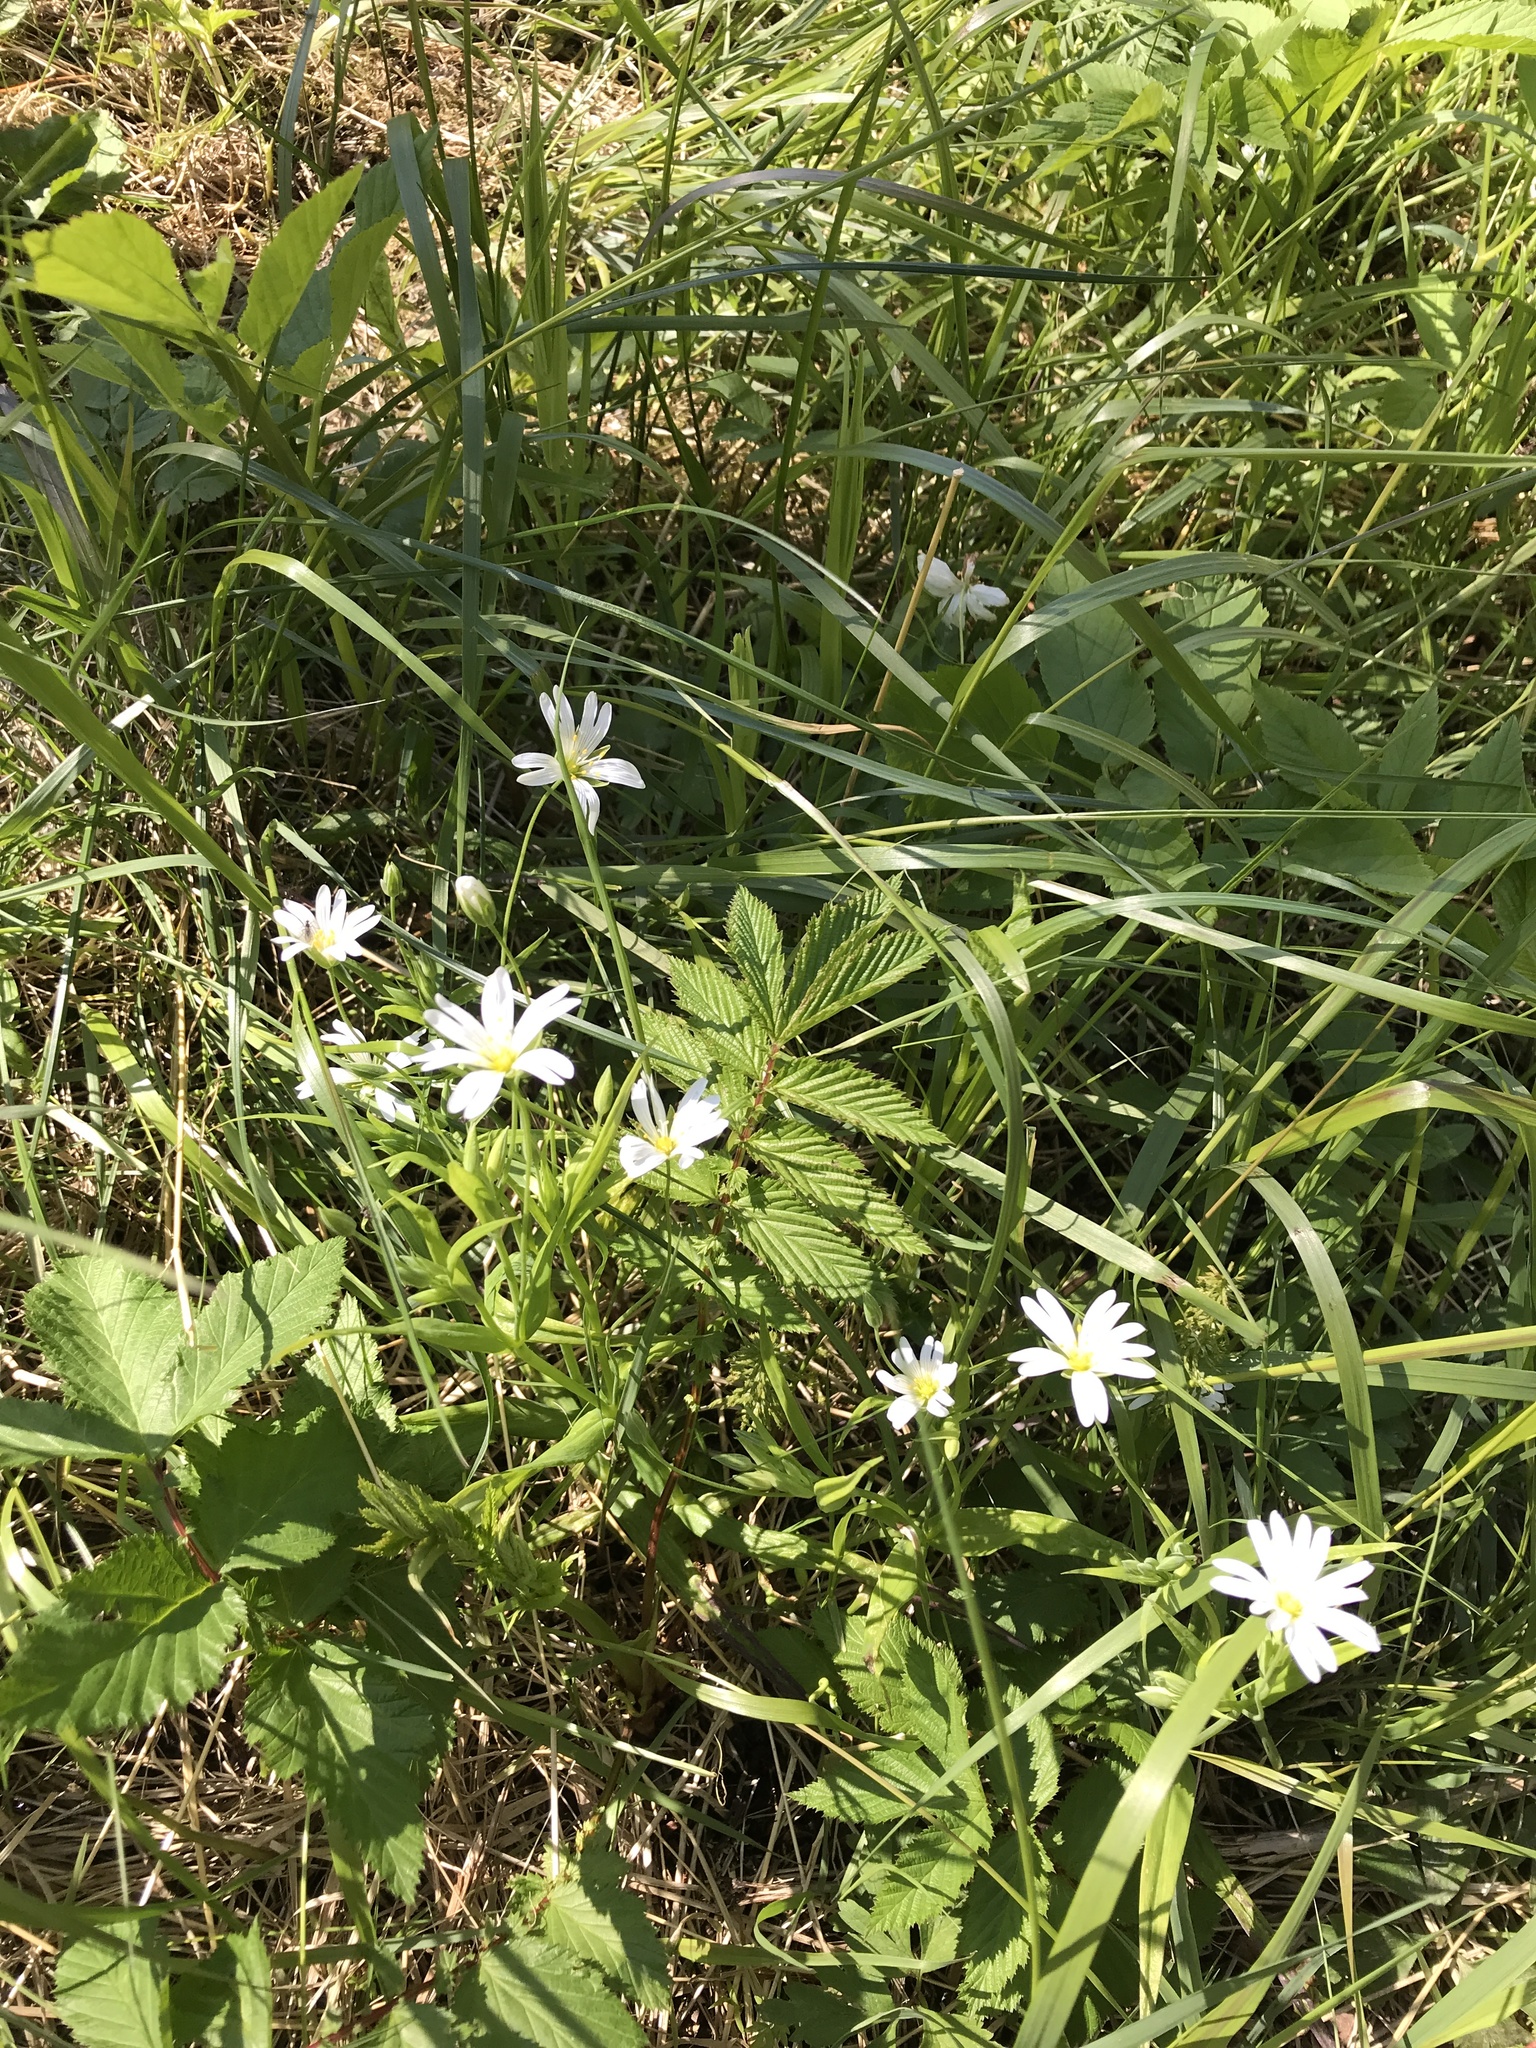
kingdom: Plantae
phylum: Tracheophyta
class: Magnoliopsida
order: Caryophyllales
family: Caryophyllaceae
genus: Rabelera
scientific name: Rabelera holostea
